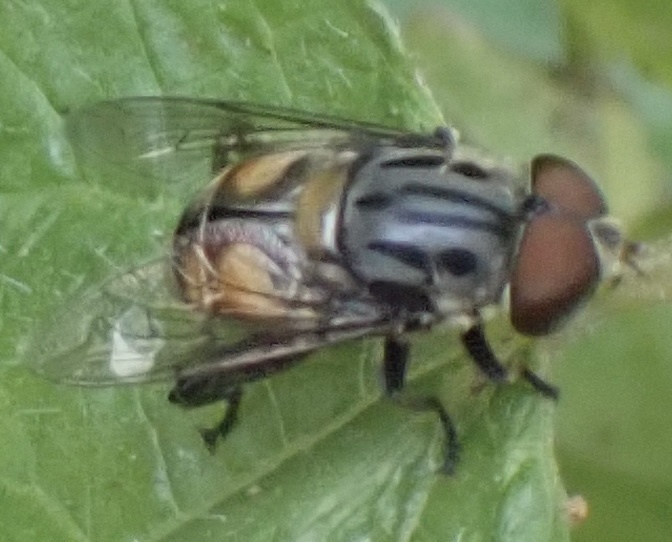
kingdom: Animalia
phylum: Arthropoda
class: Insecta
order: Diptera
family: Syrphidae
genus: Palpada
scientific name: Palpada furcata
